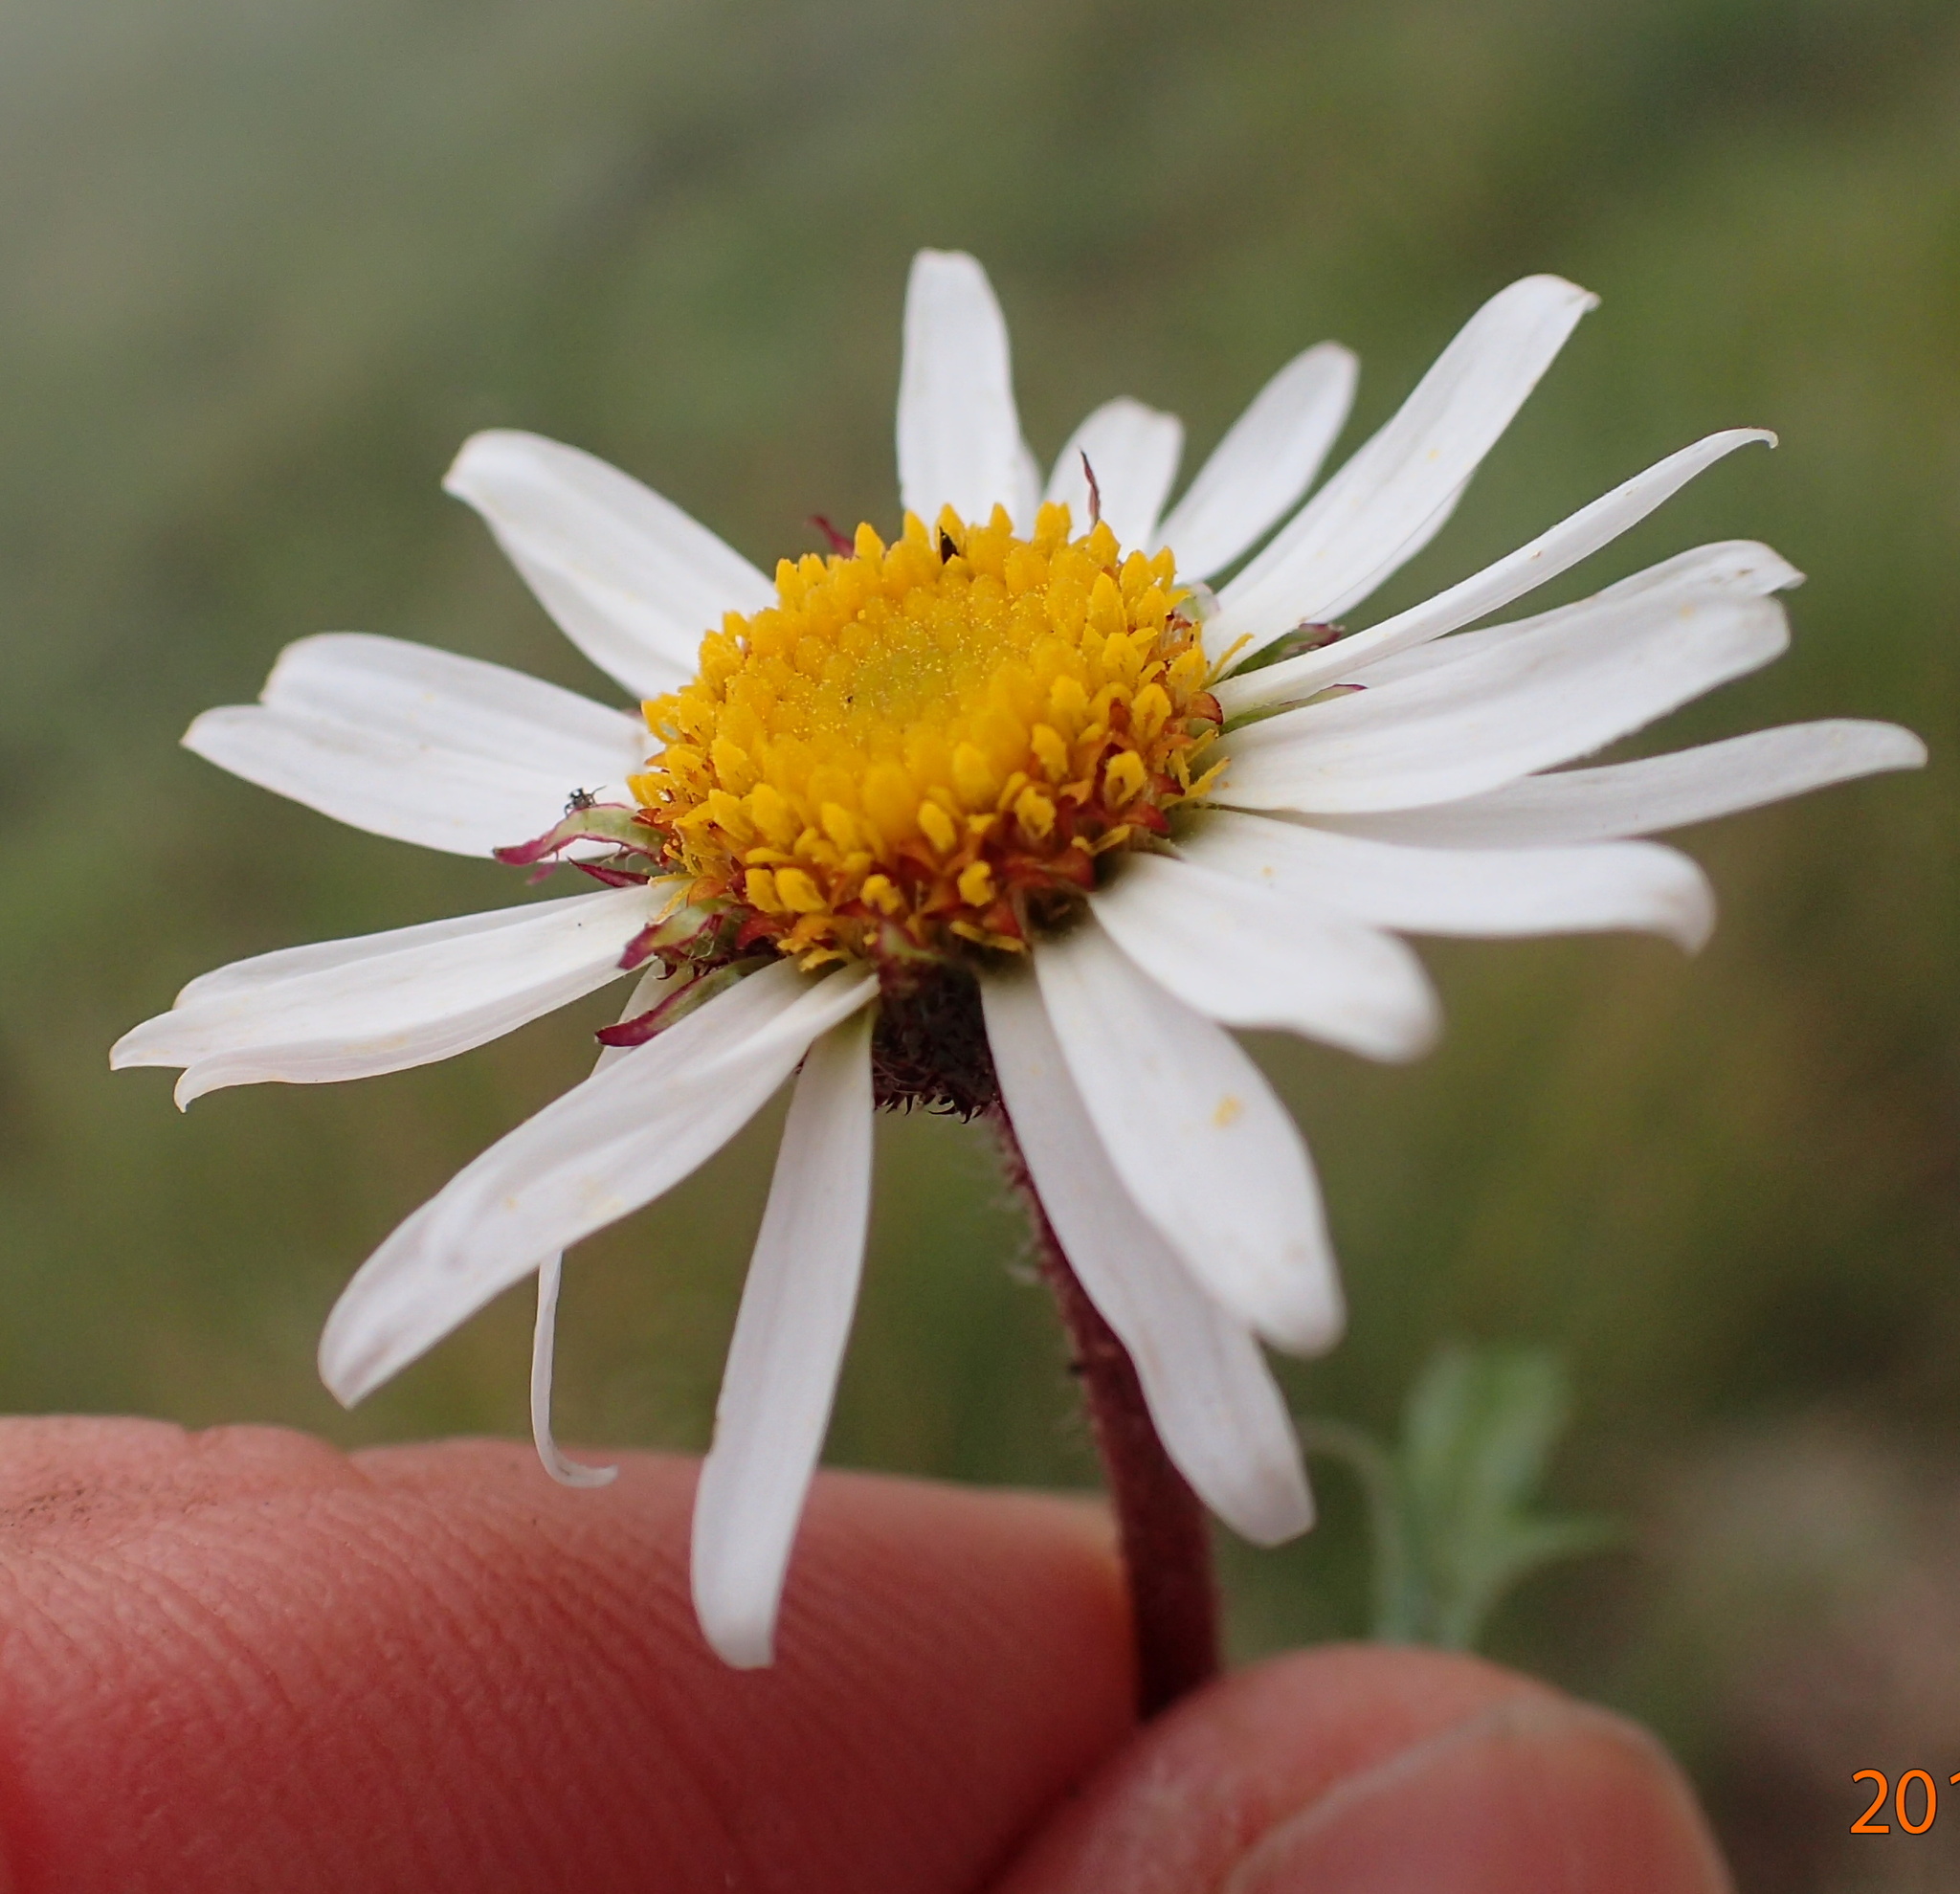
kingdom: Plantae
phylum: Tracheophyta
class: Magnoliopsida
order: Asterales
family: Asteraceae
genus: Afroaster
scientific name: Afroaster erucifolius
